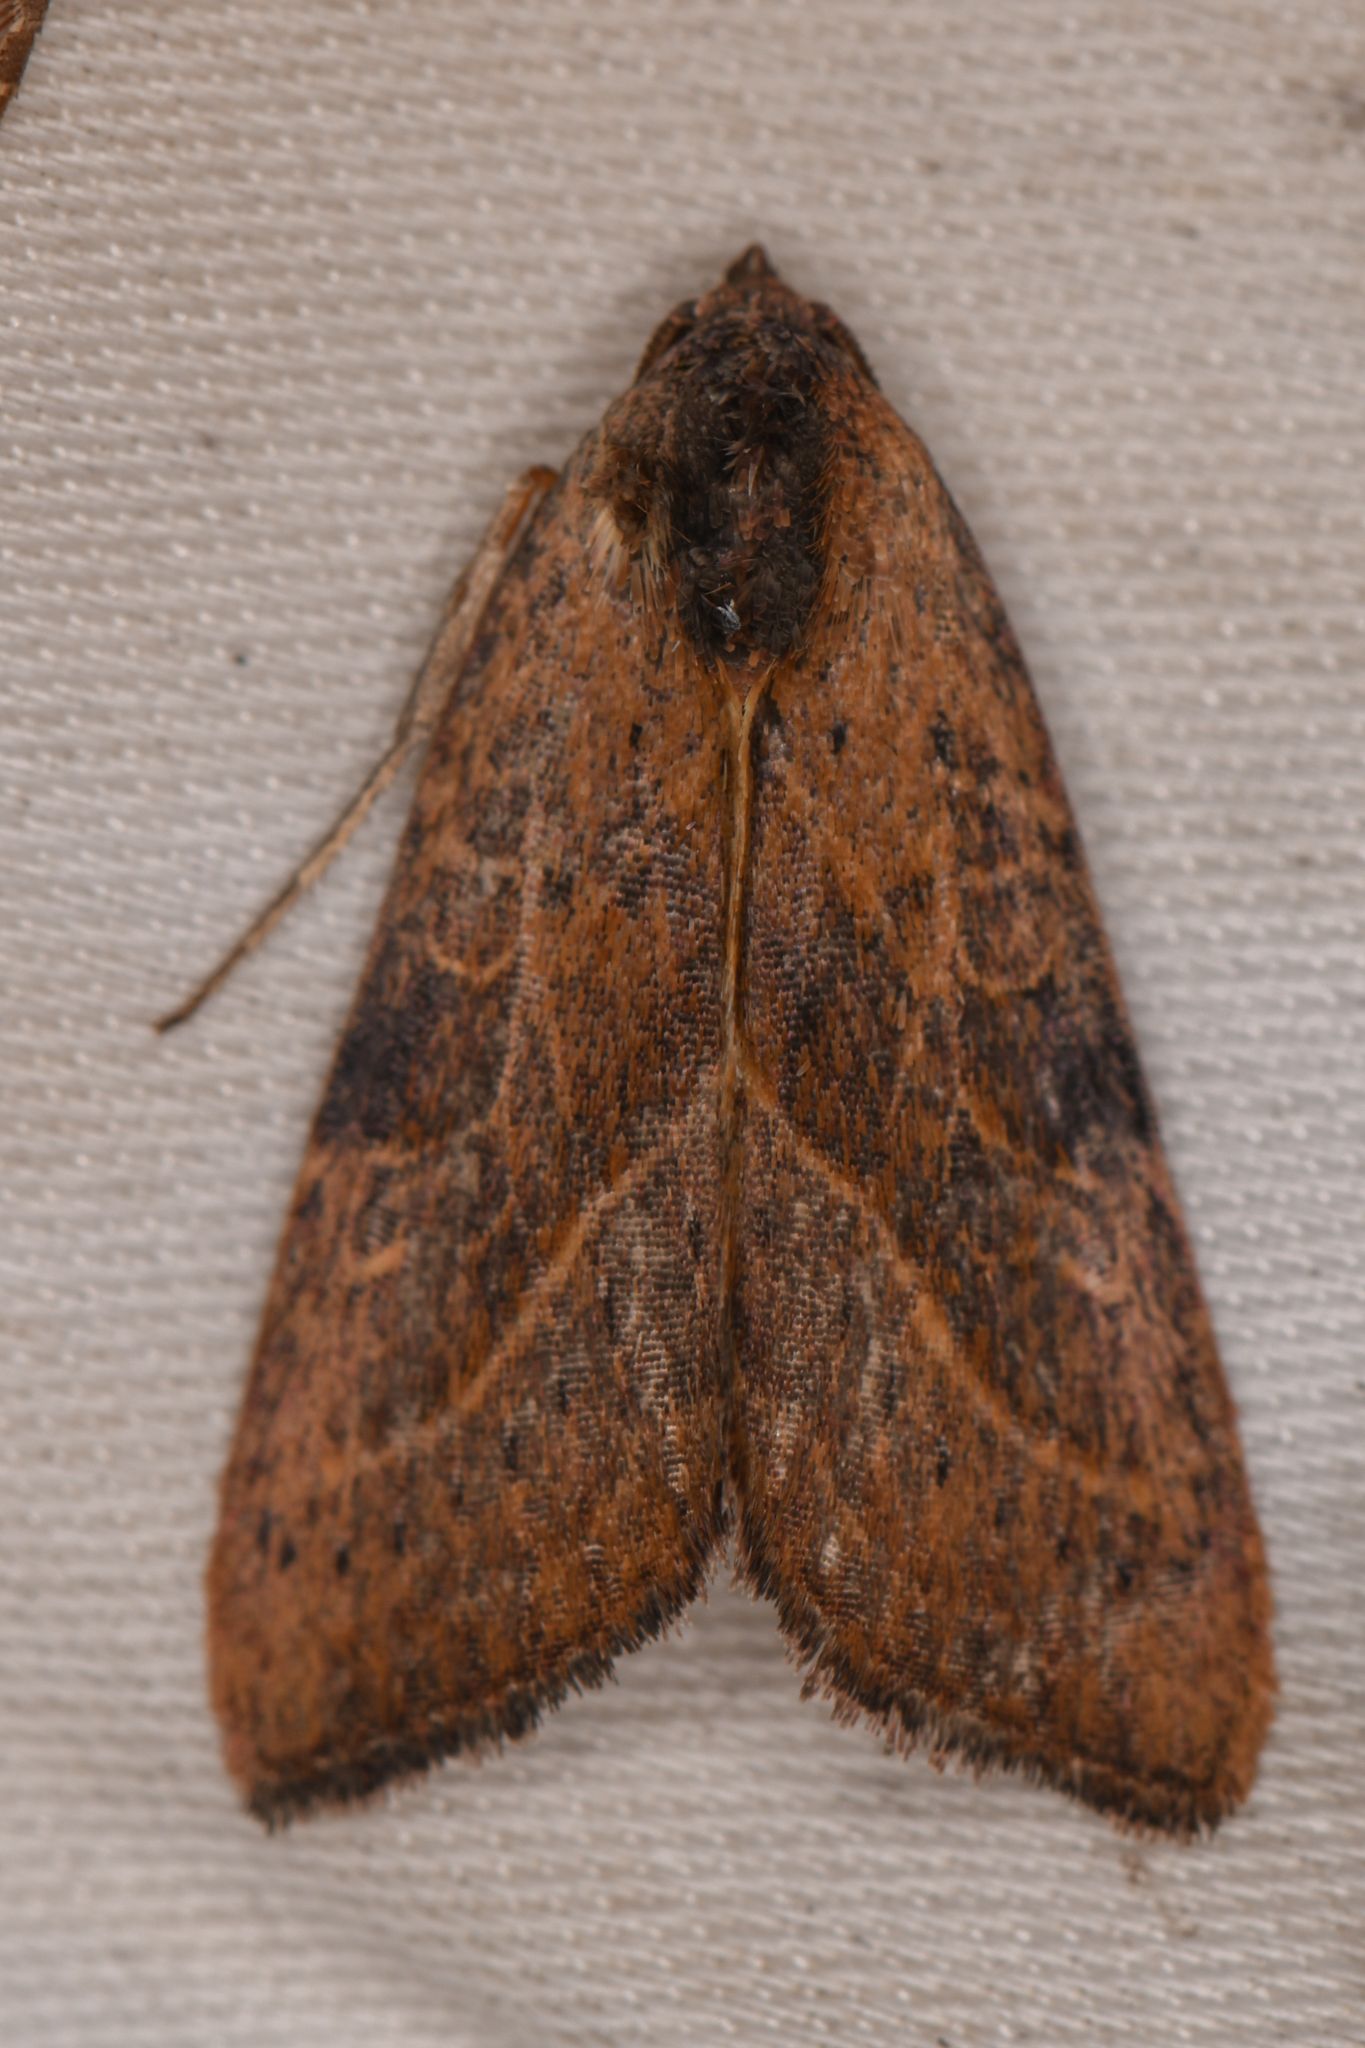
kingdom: Animalia
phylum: Arthropoda
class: Insecta
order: Lepidoptera
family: Noctuidae
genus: Galgula
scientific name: Galgula partita
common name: Wedgeling
